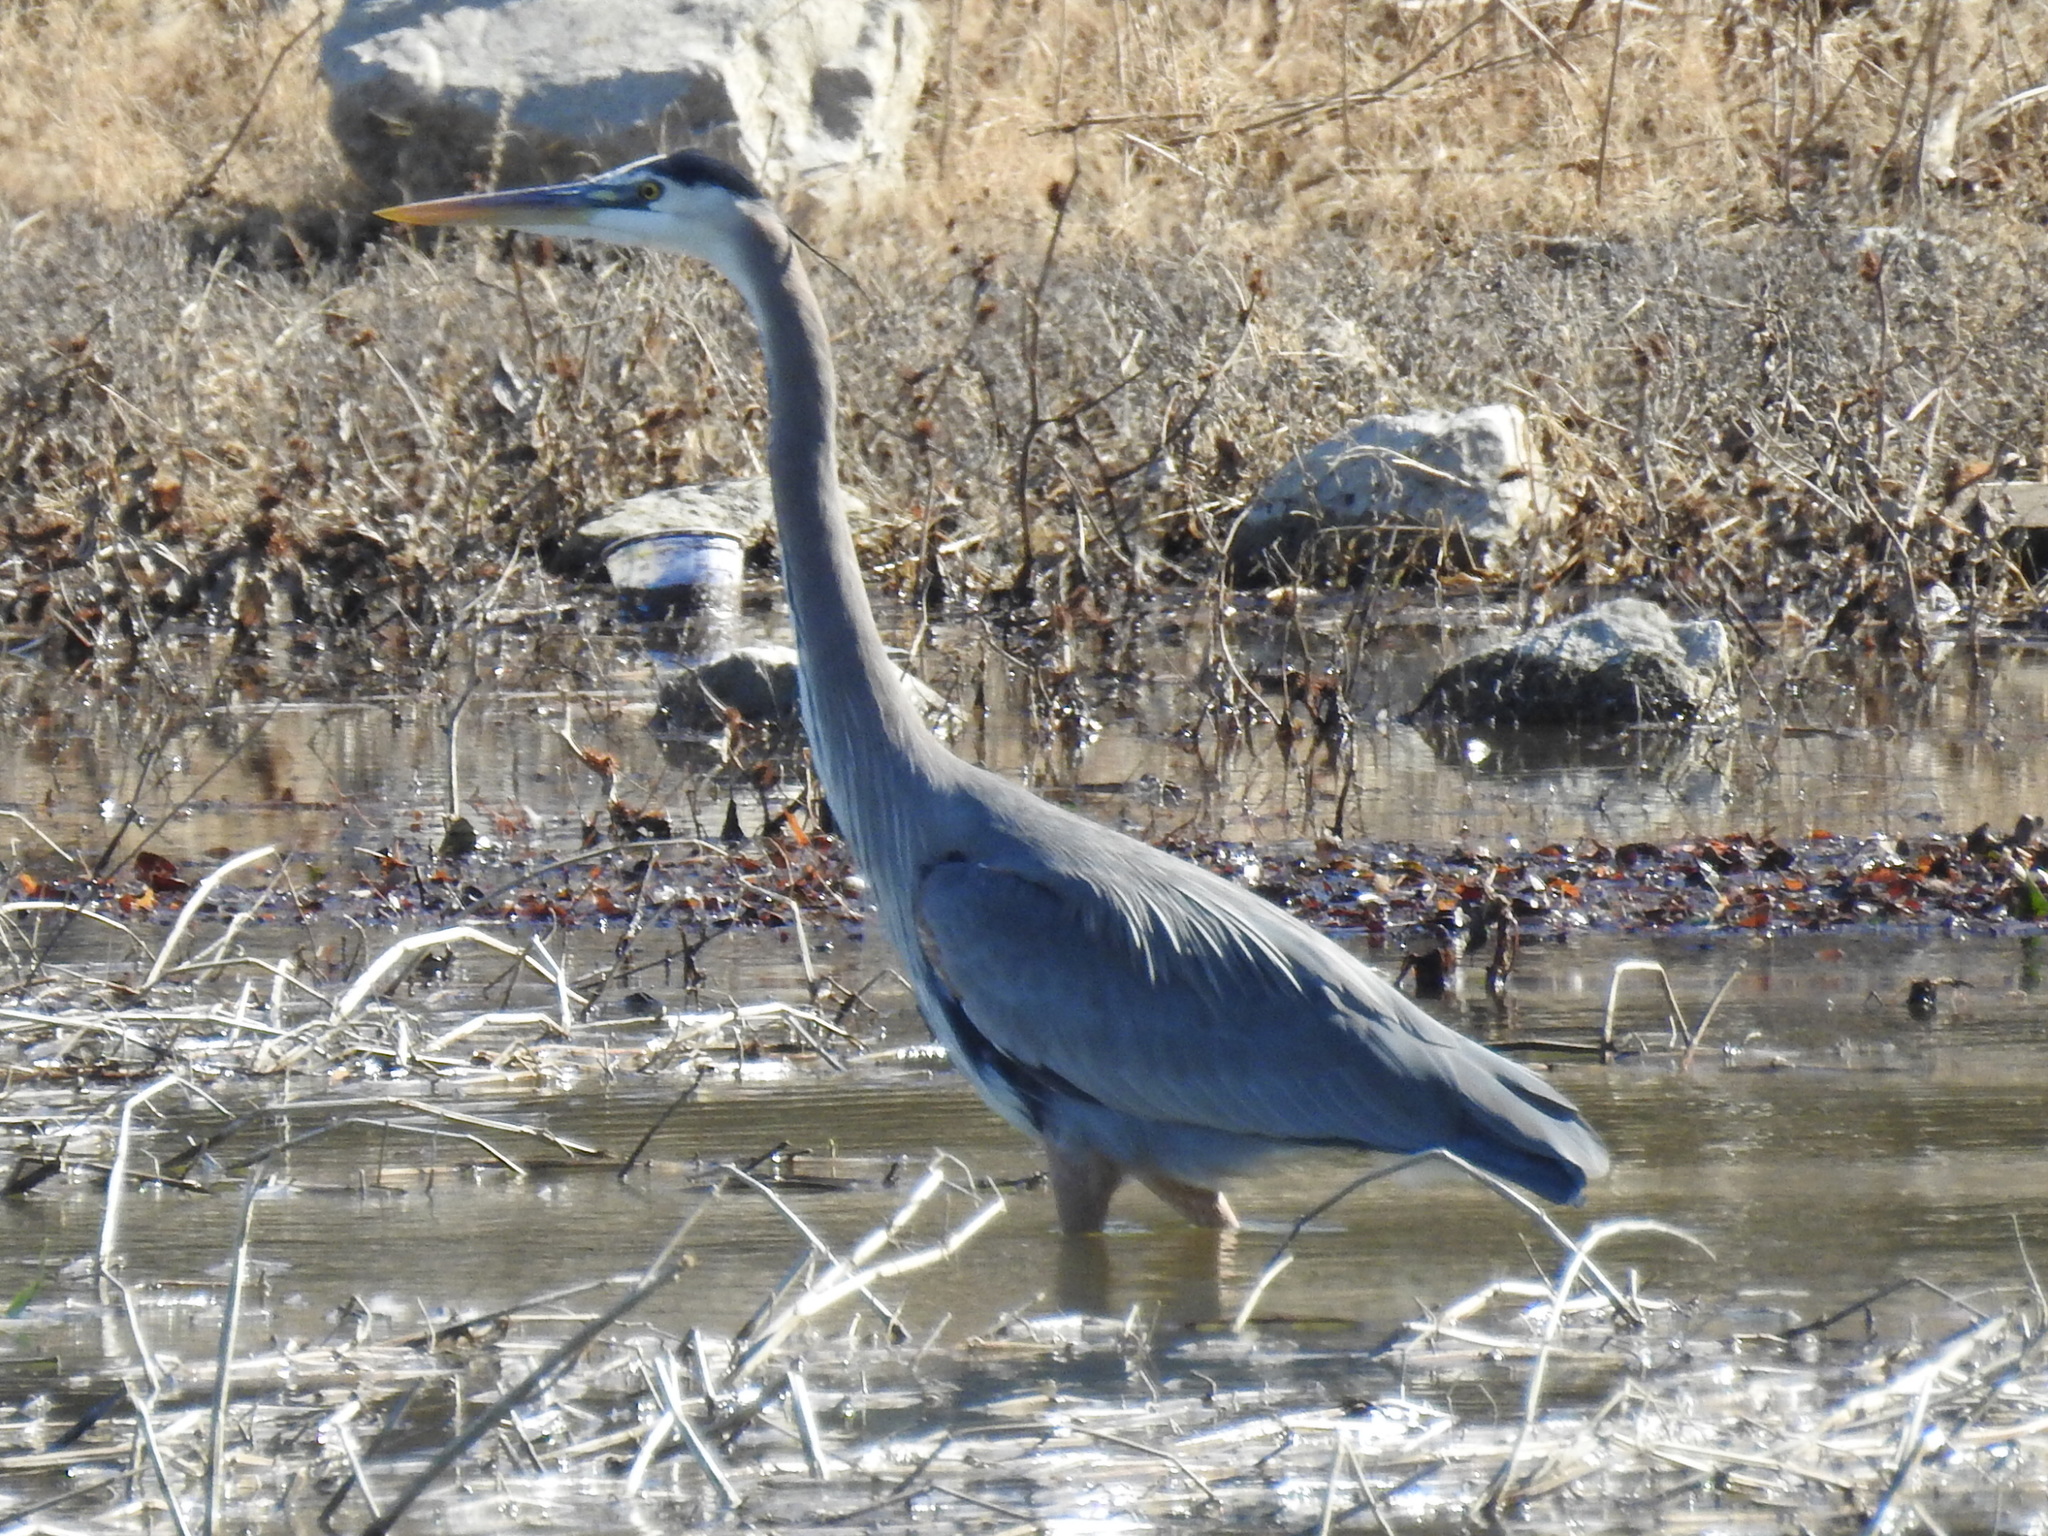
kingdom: Animalia
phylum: Chordata
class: Aves
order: Pelecaniformes
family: Ardeidae
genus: Ardea
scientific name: Ardea herodias
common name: Great blue heron
